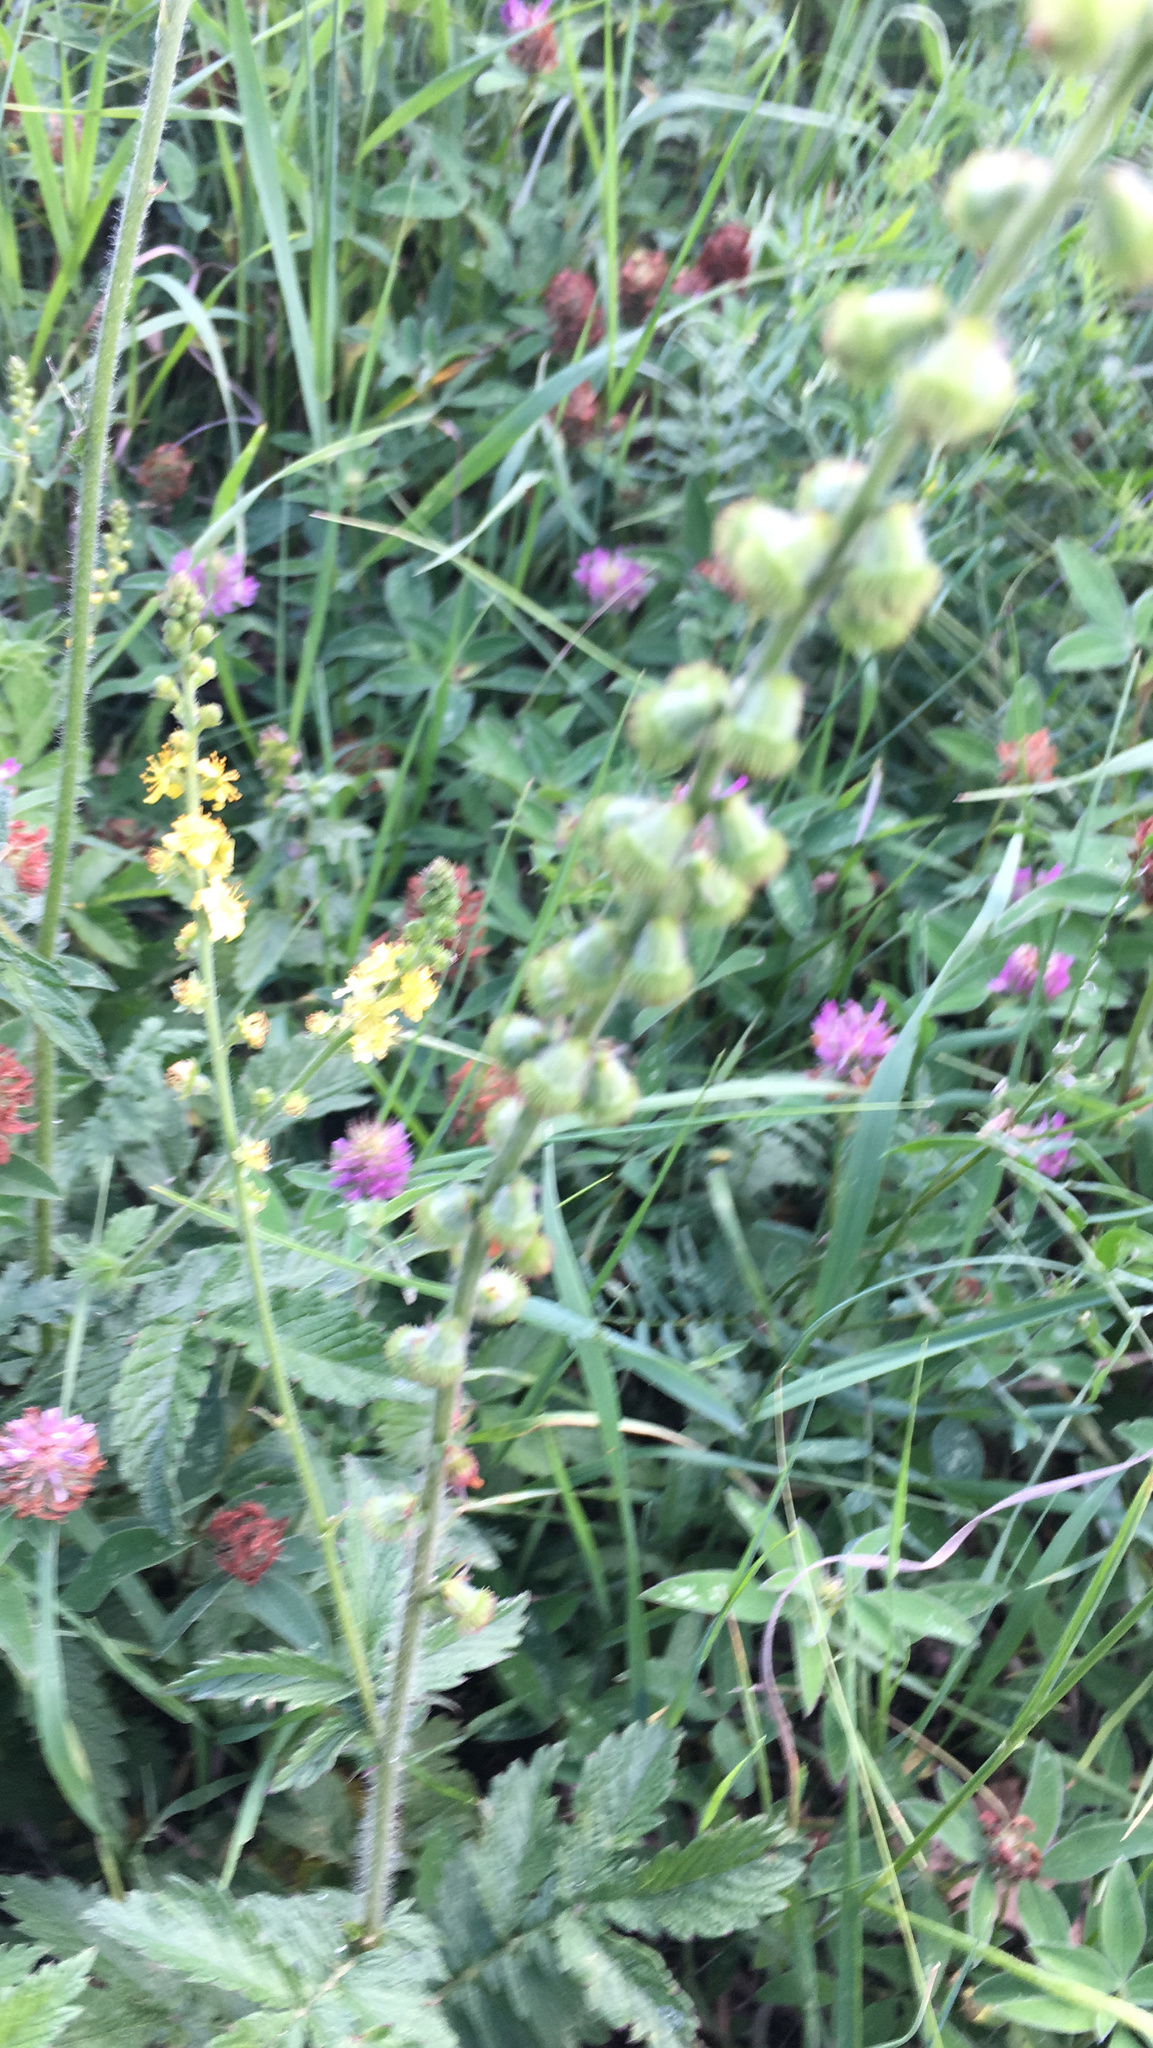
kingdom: Plantae
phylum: Tracheophyta
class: Magnoliopsida
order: Rosales
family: Rosaceae
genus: Agrimonia
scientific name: Agrimonia eupatoria
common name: Agrimony
